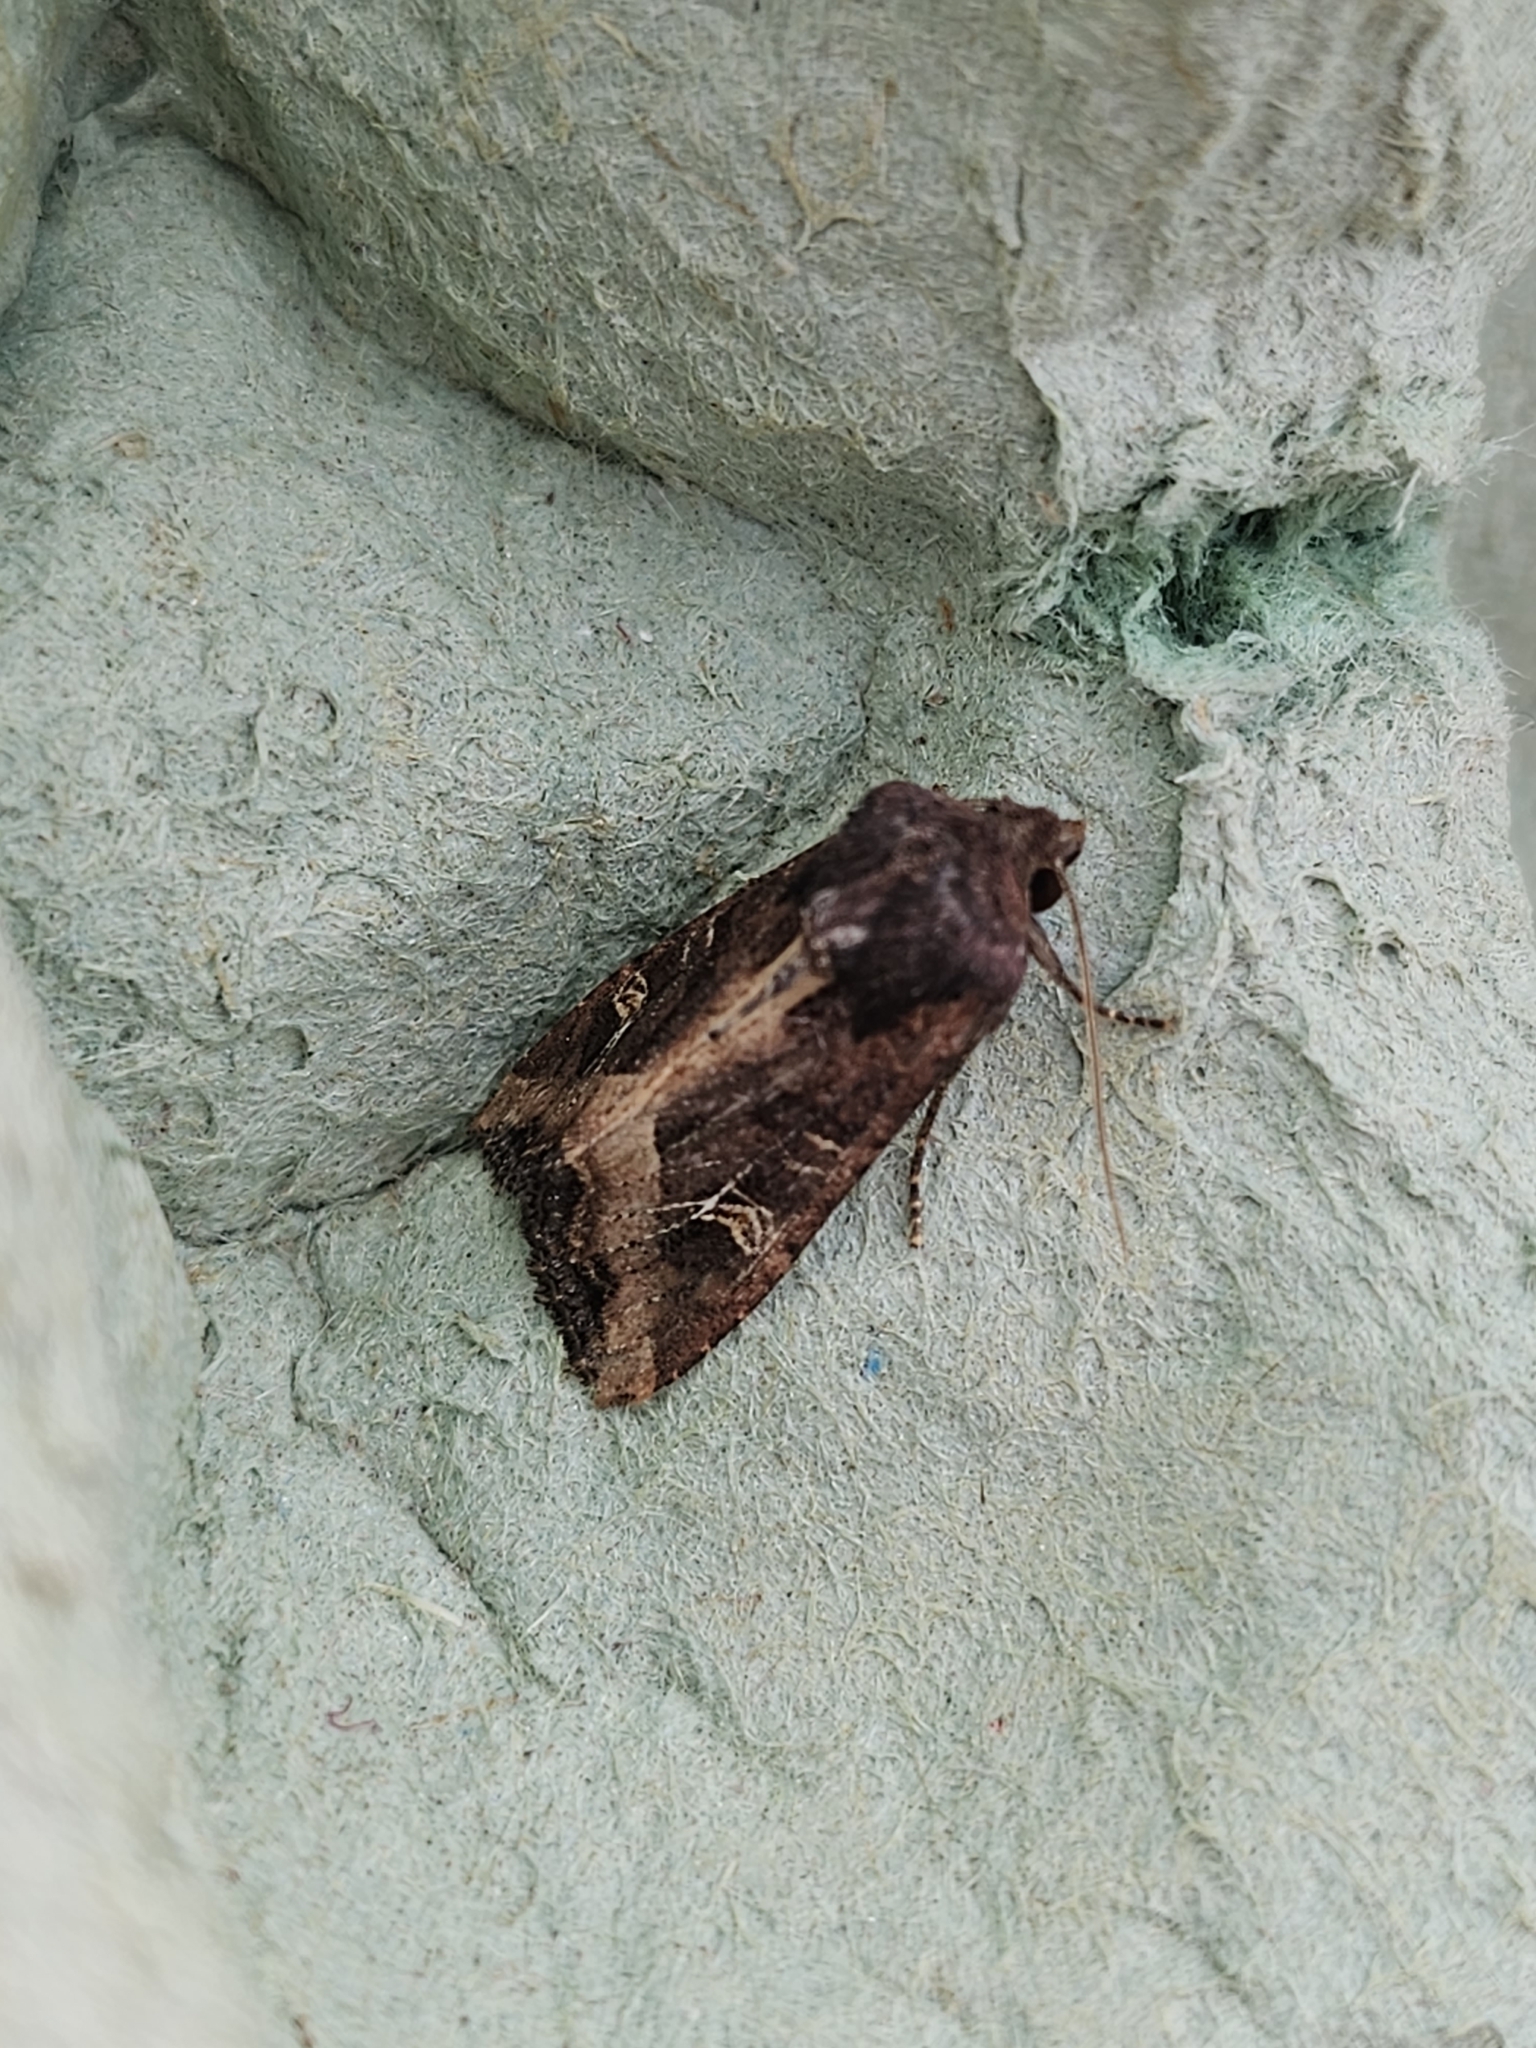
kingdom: Animalia
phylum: Arthropoda
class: Insecta
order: Lepidoptera
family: Noctuidae
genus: Helotropha
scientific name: Helotropha leucostigma
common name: The crescent
